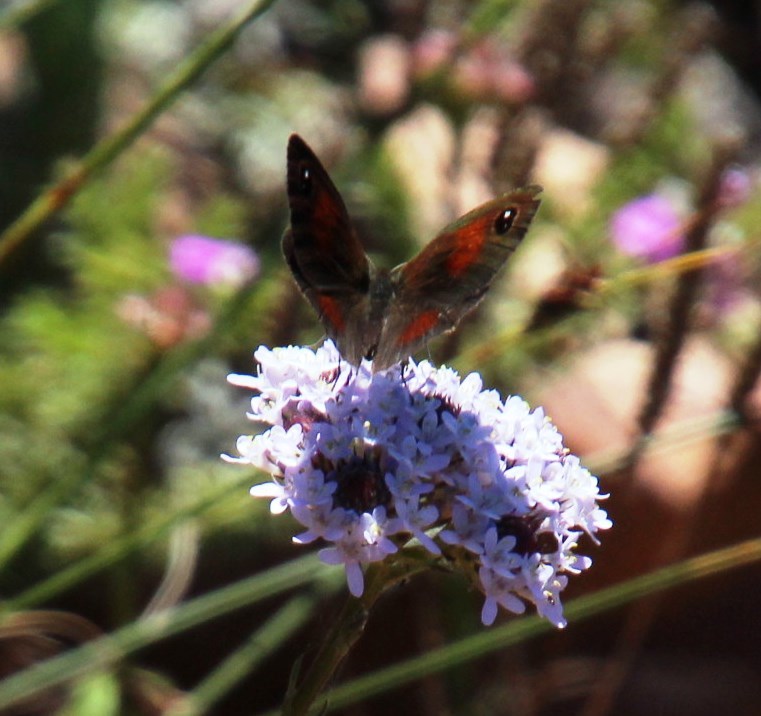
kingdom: Animalia
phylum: Arthropoda
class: Insecta
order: Lepidoptera
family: Nymphalidae
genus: Cassionympha
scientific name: Cassionympha cassius
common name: Rainforest brown
